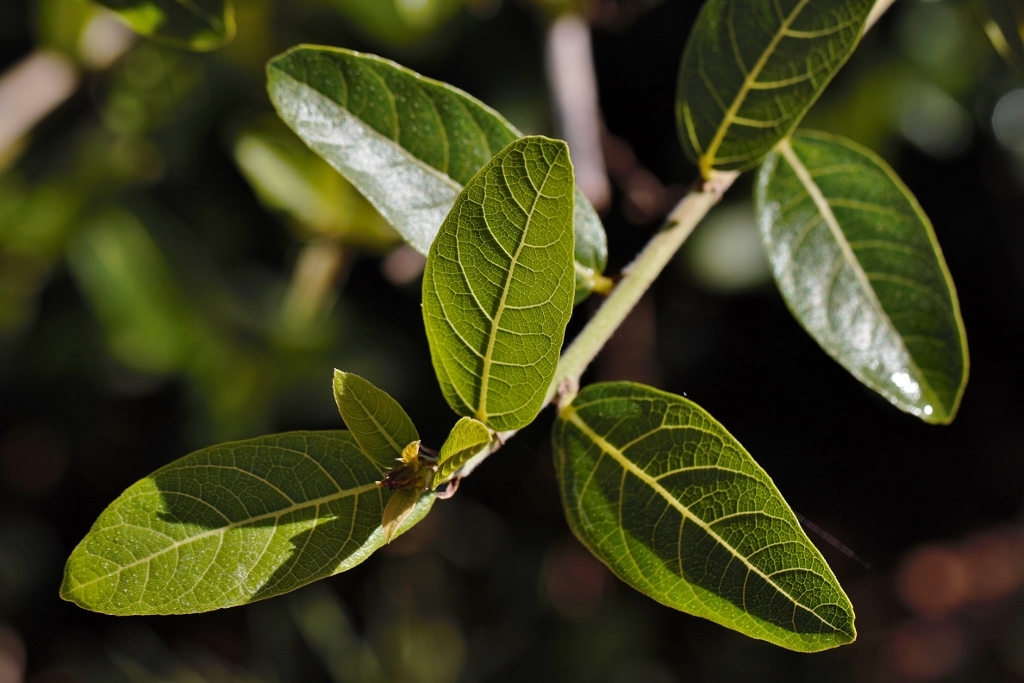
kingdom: Plantae
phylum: Tracheophyta
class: Magnoliopsida
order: Rosales
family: Moraceae
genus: Ficus
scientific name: Ficus capreifolia
